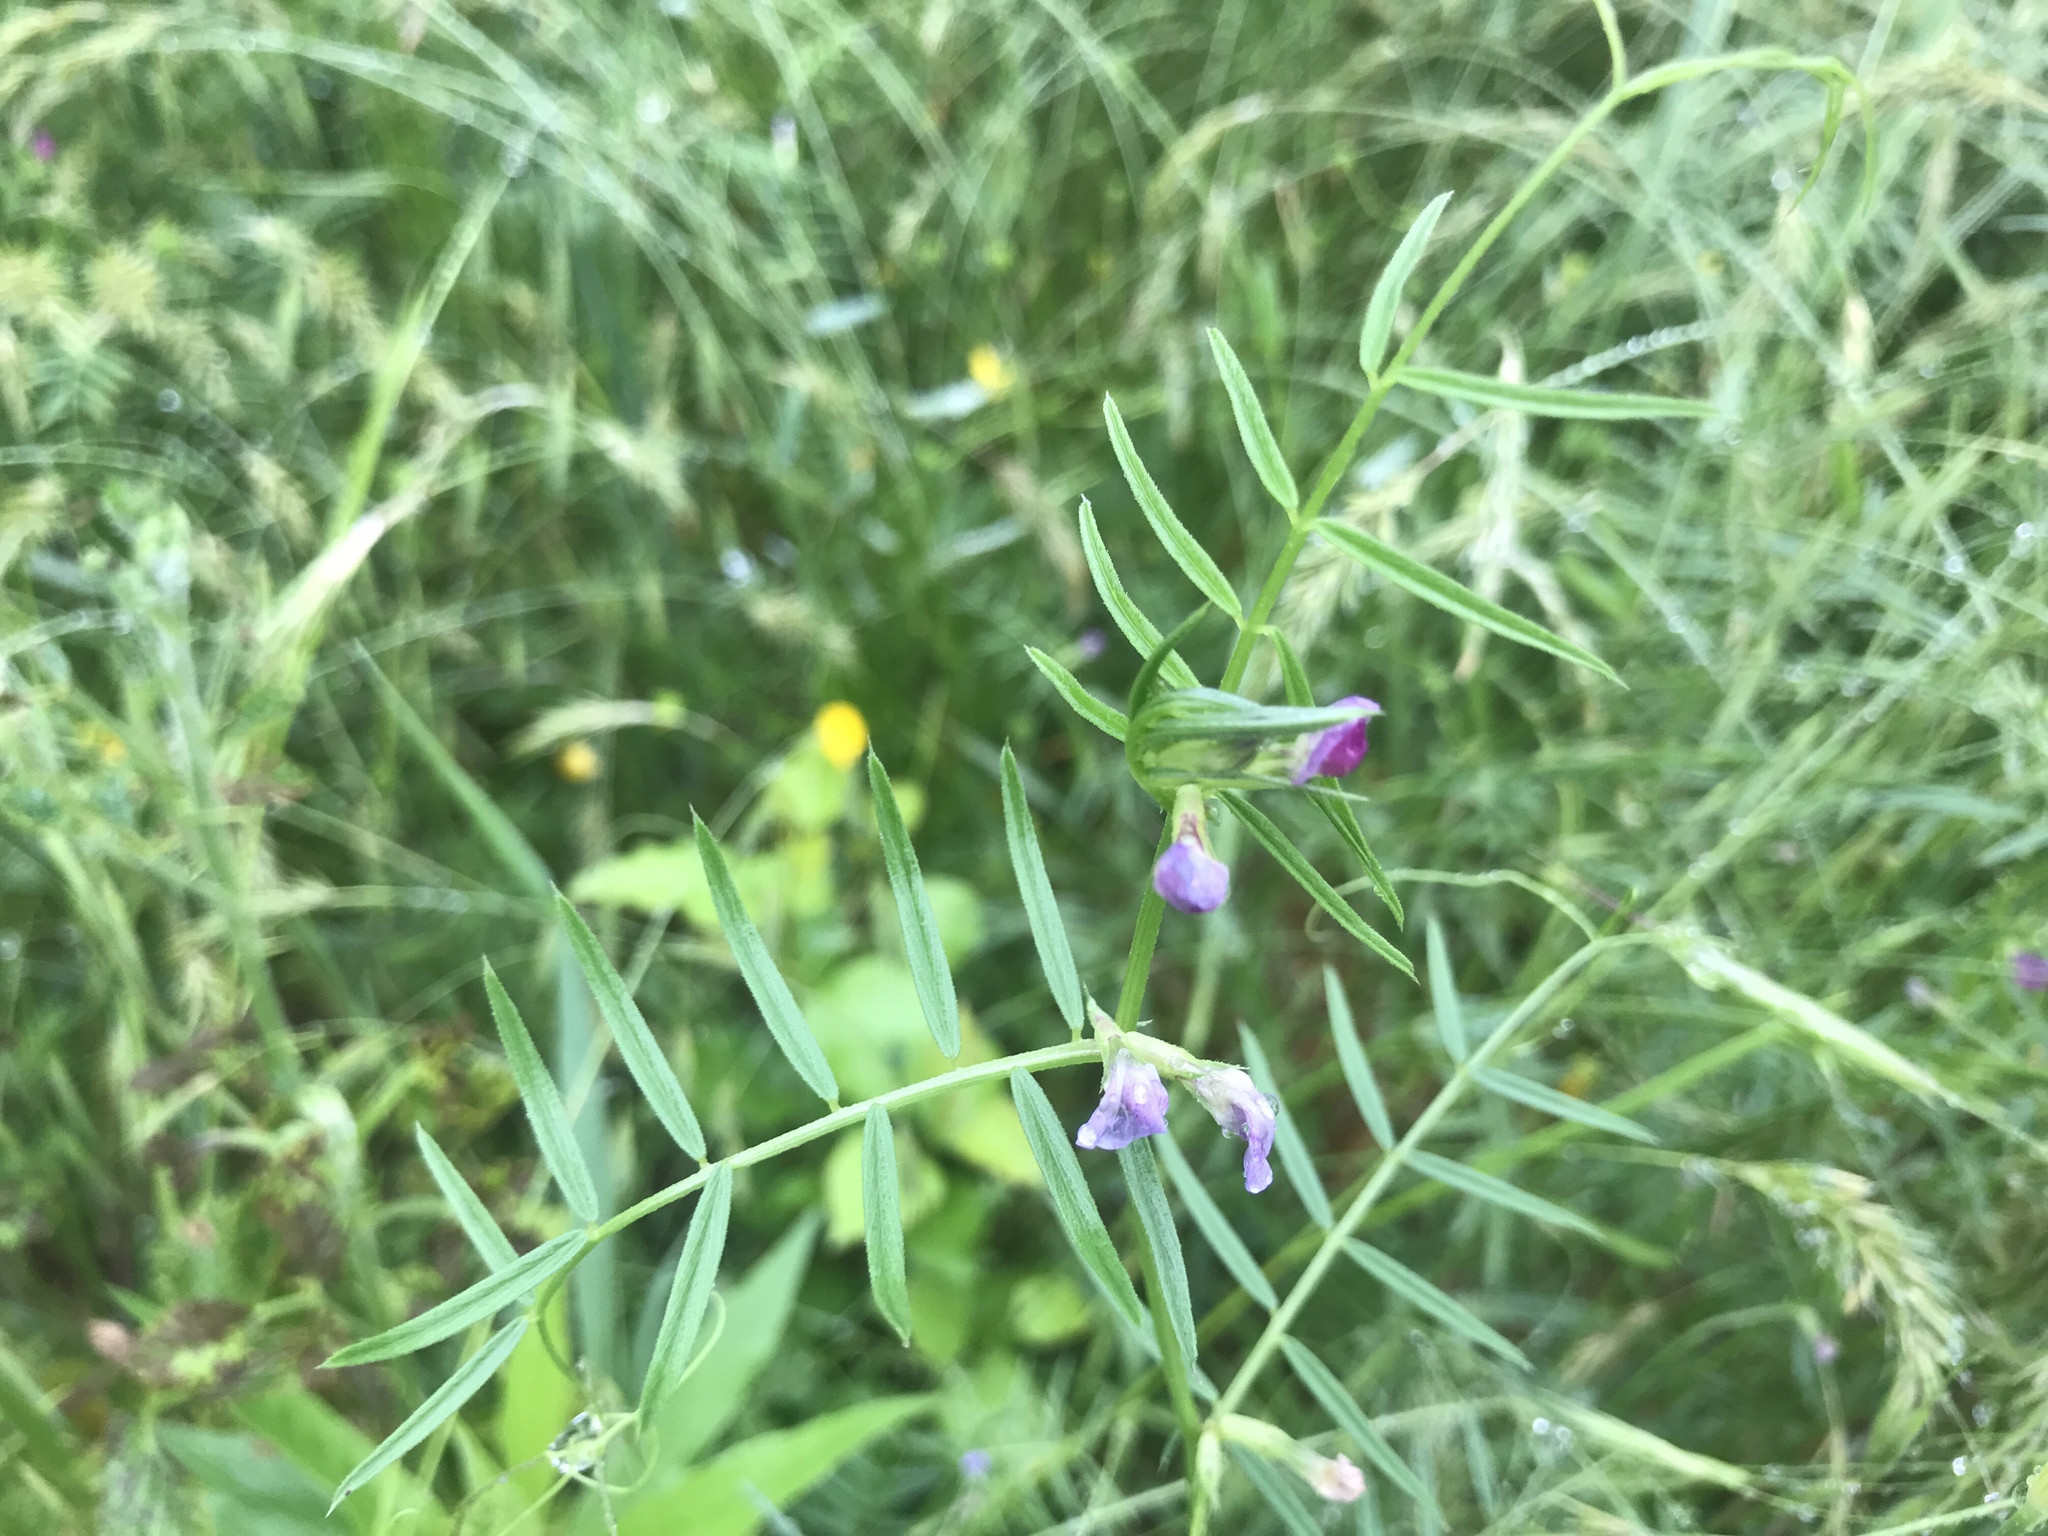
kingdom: Plantae
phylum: Tracheophyta
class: Magnoliopsida
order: Fabales
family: Fabaceae
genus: Vicia
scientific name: Vicia sativa
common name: Garden vetch
